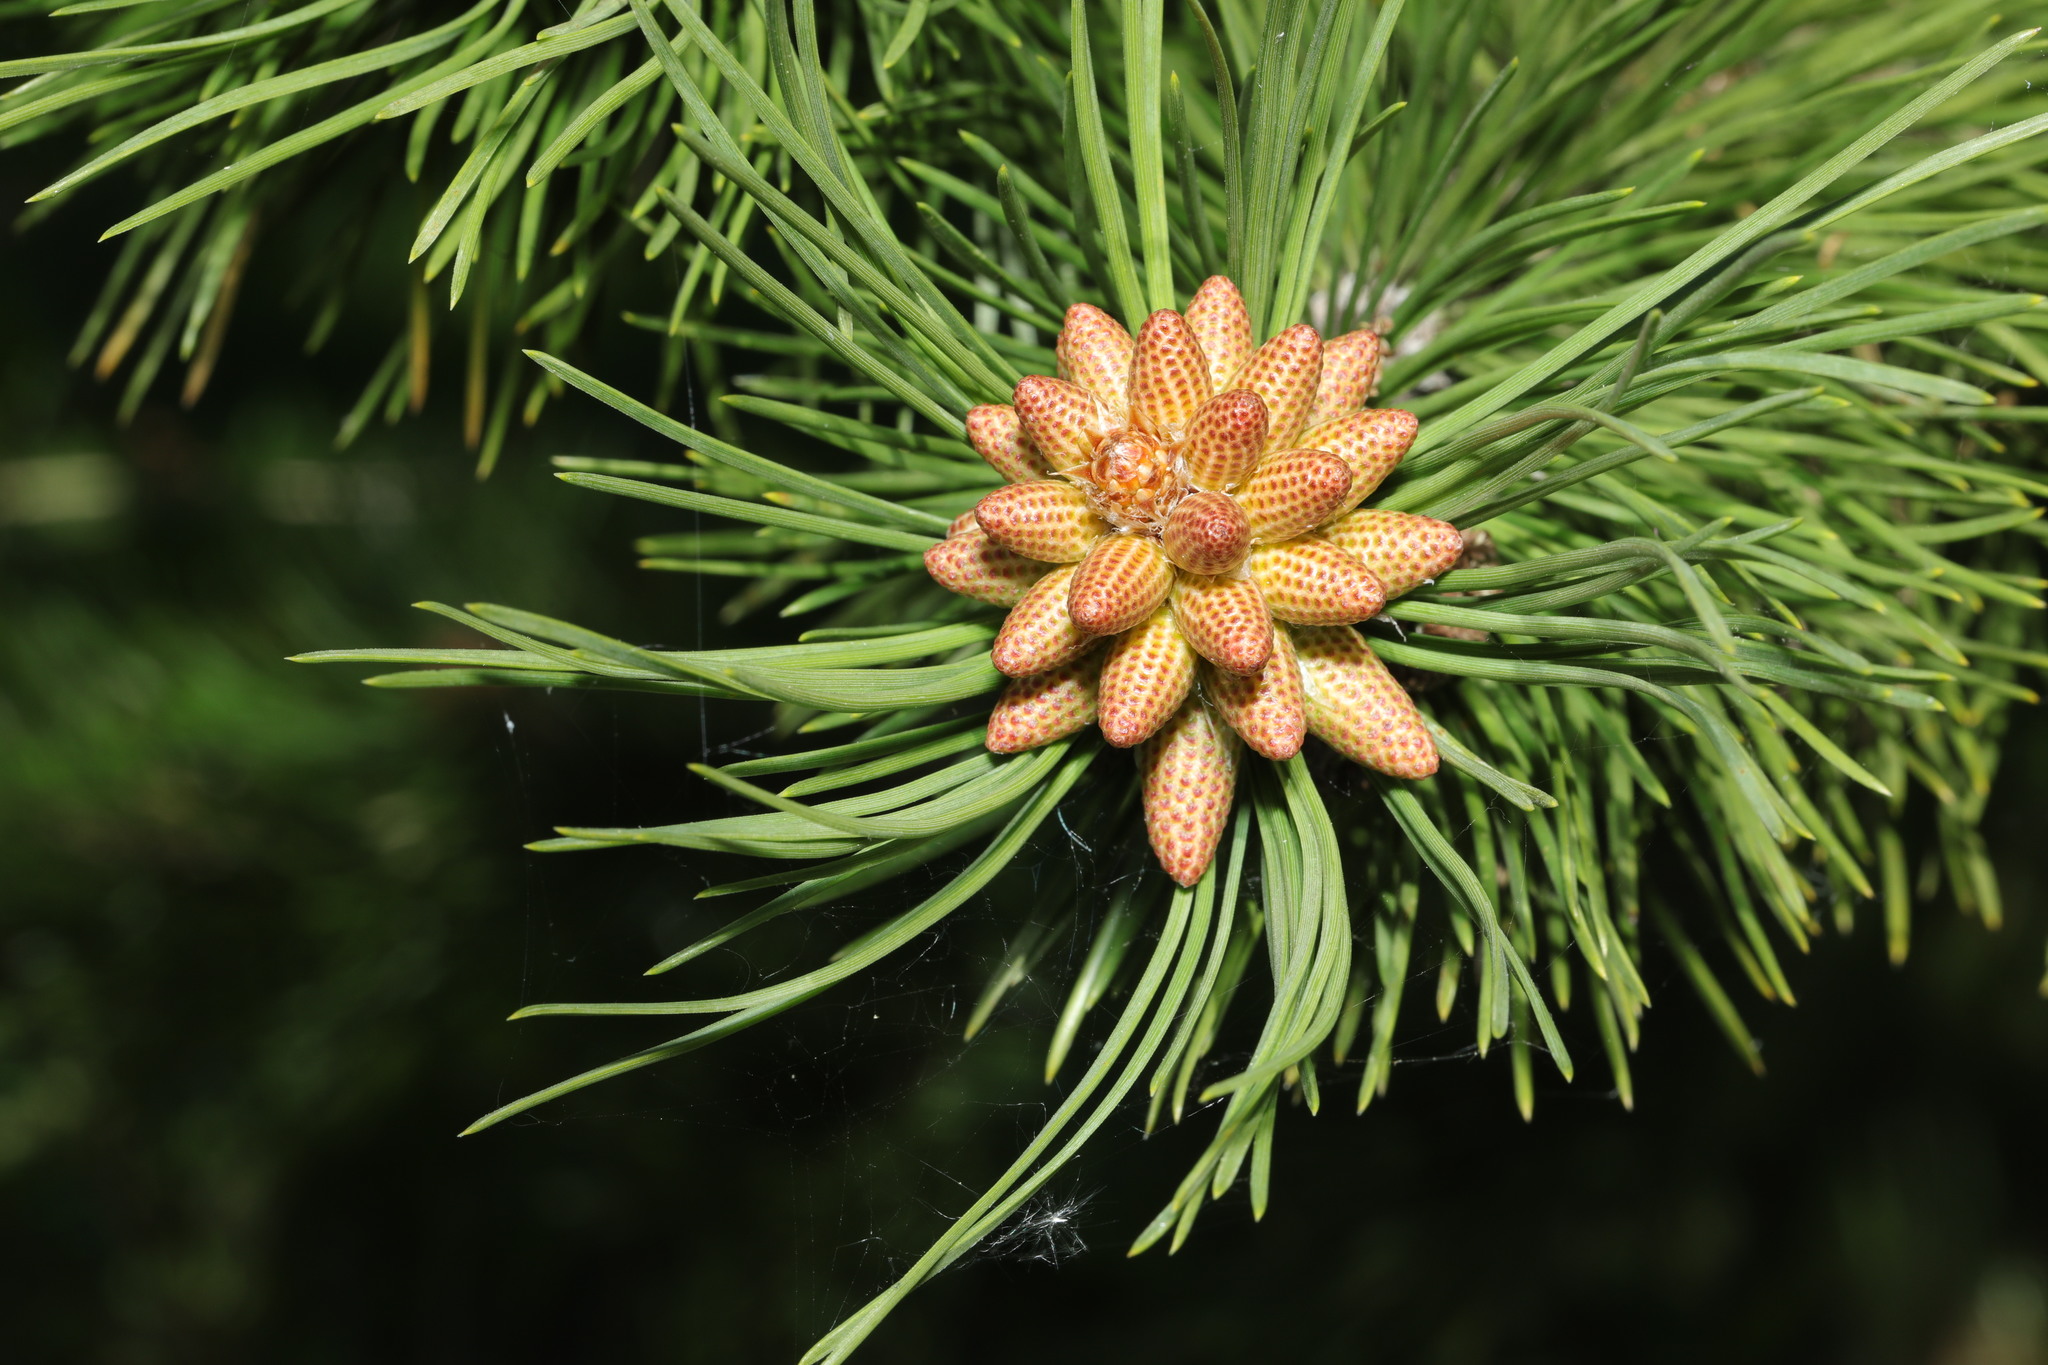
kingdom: Plantae
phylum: Tracheophyta
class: Pinopsida
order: Pinales
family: Pinaceae
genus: Pinus
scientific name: Pinus sylvestris
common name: Scots pine
